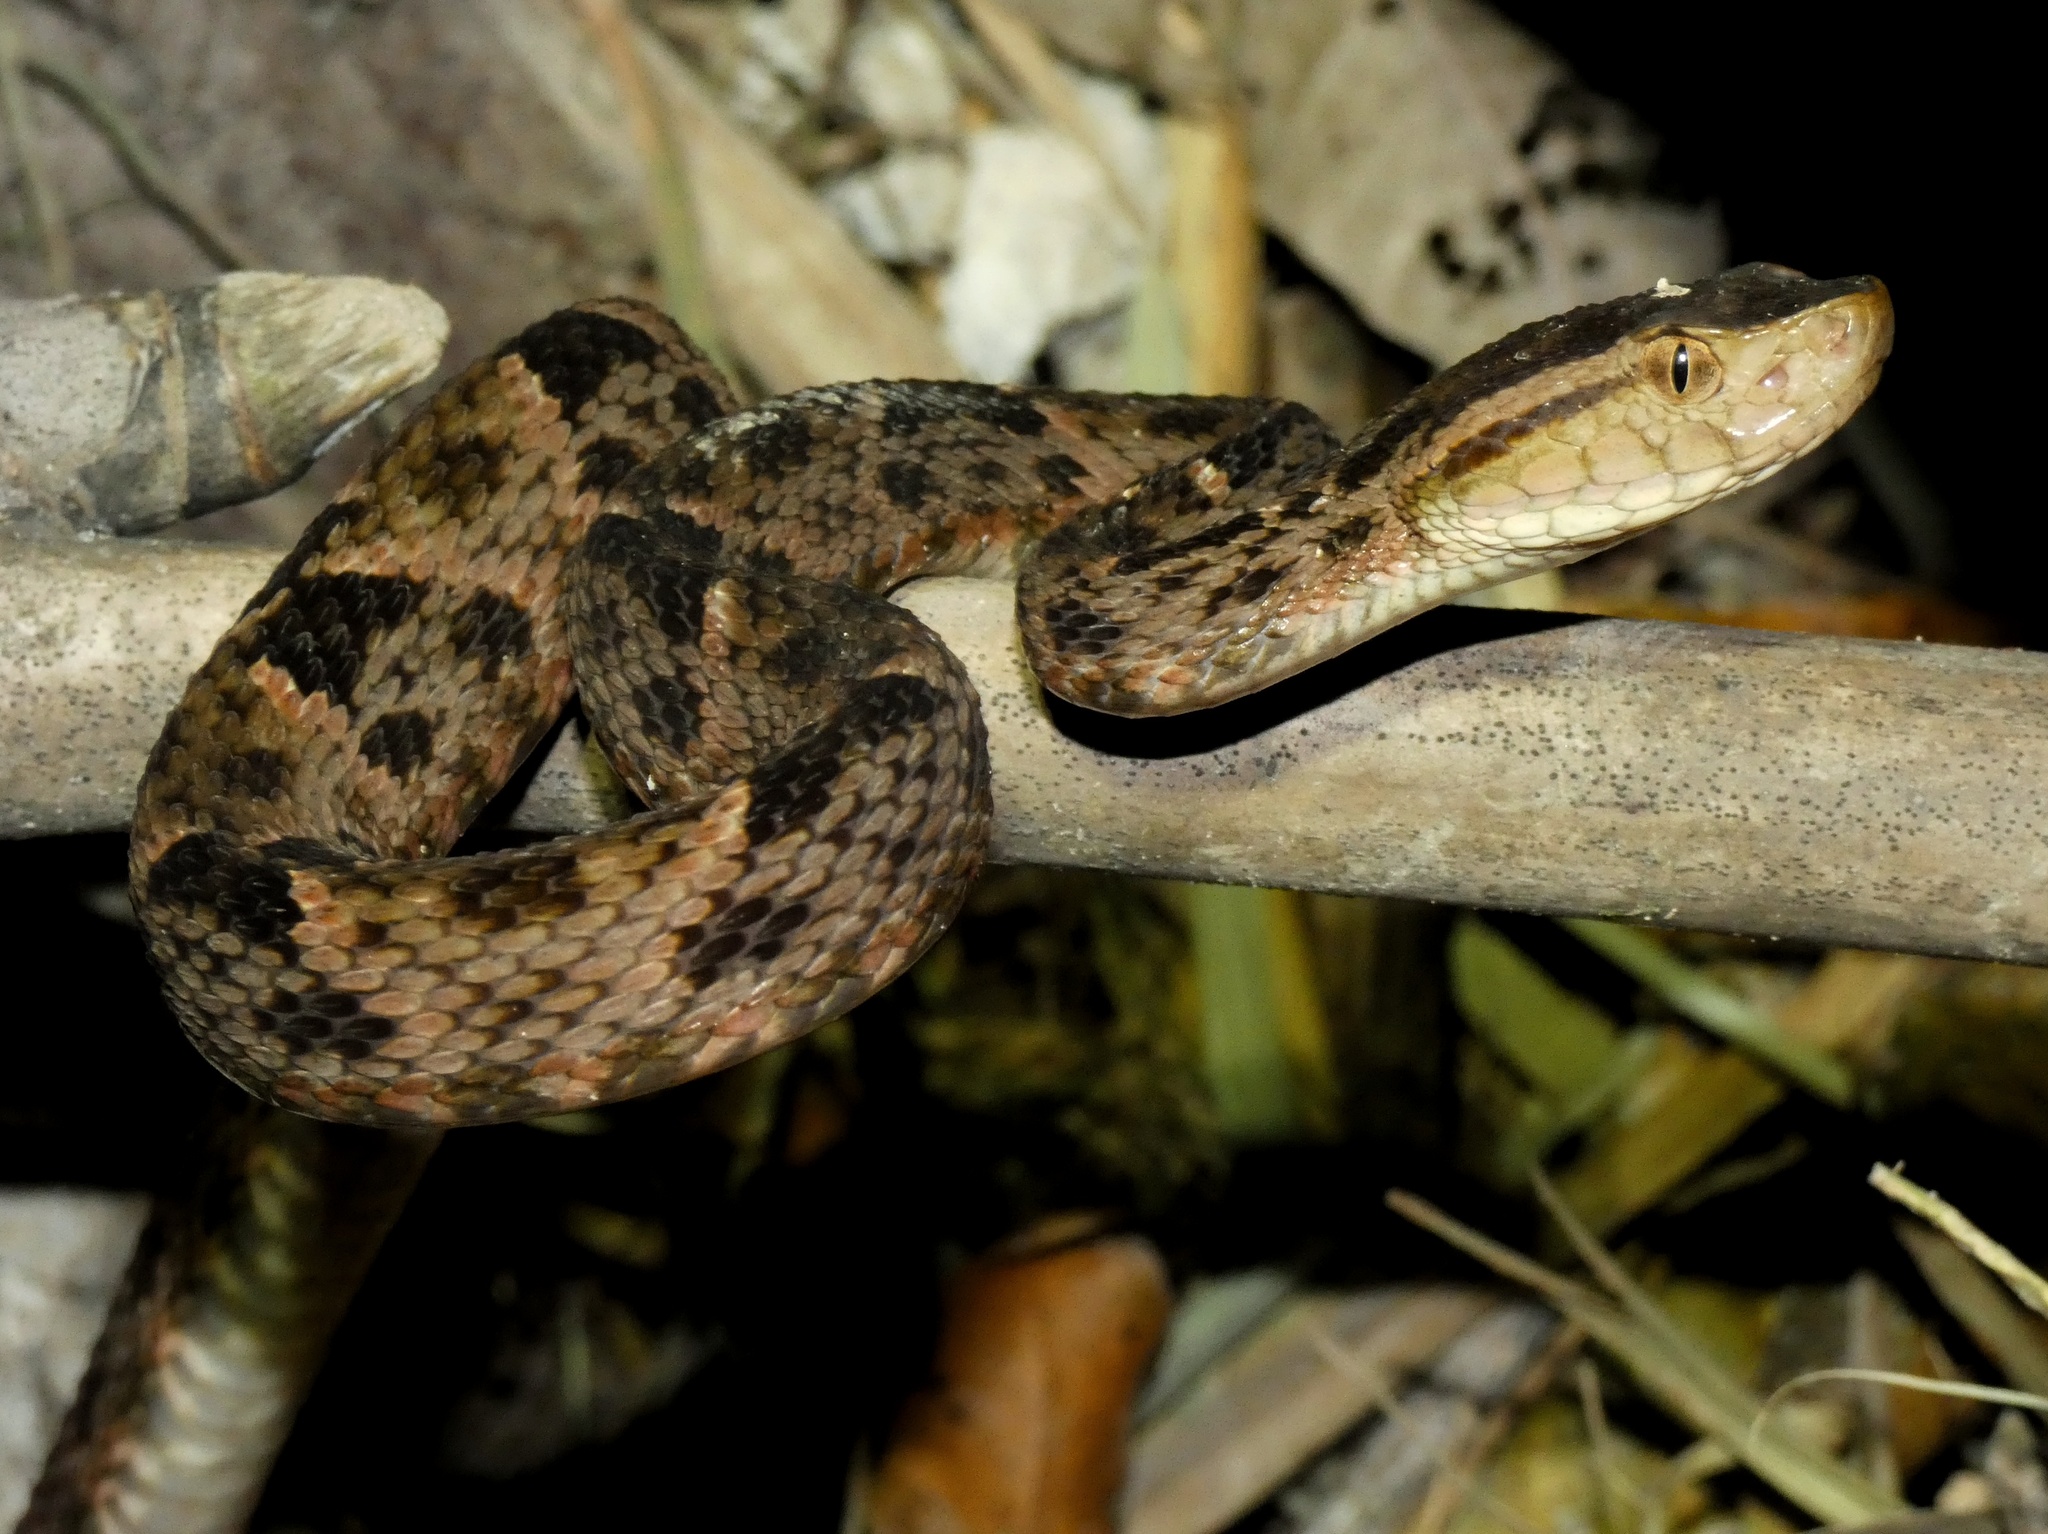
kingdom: Animalia
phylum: Chordata
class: Squamata
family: Viperidae
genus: Bothrops
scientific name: Bothrops asper
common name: Terciopelo
